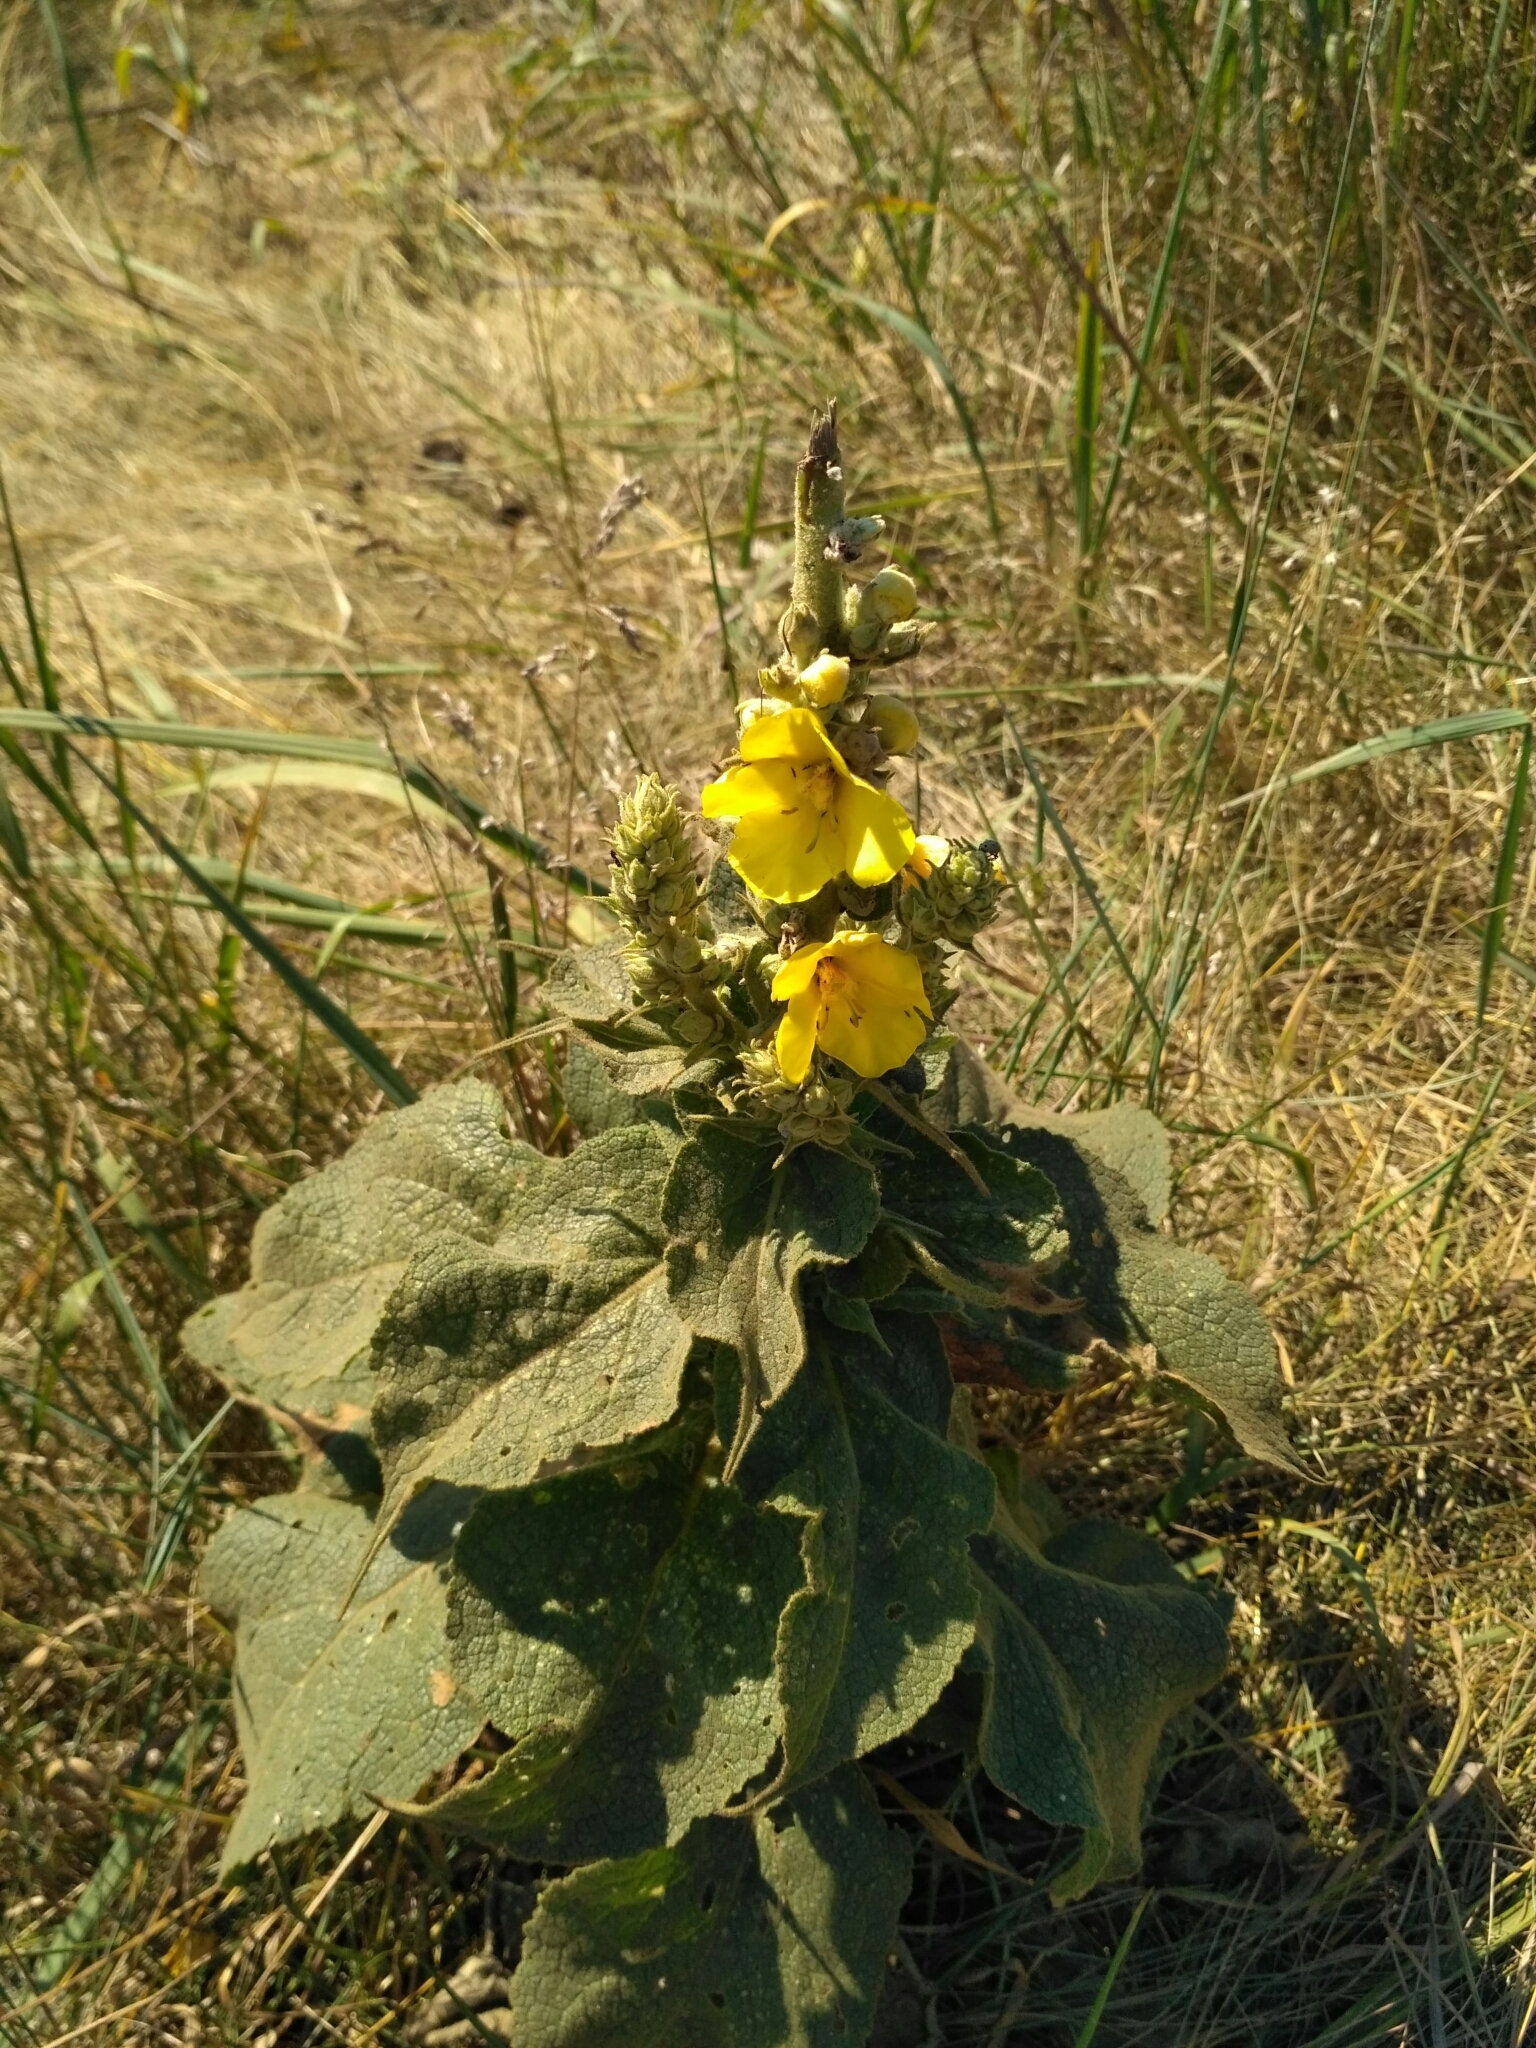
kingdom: Plantae
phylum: Tracheophyta
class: Magnoliopsida
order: Lamiales
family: Scrophulariaceae
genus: Verbascum
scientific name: Verbascum phlomoides
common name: Orange mullein
